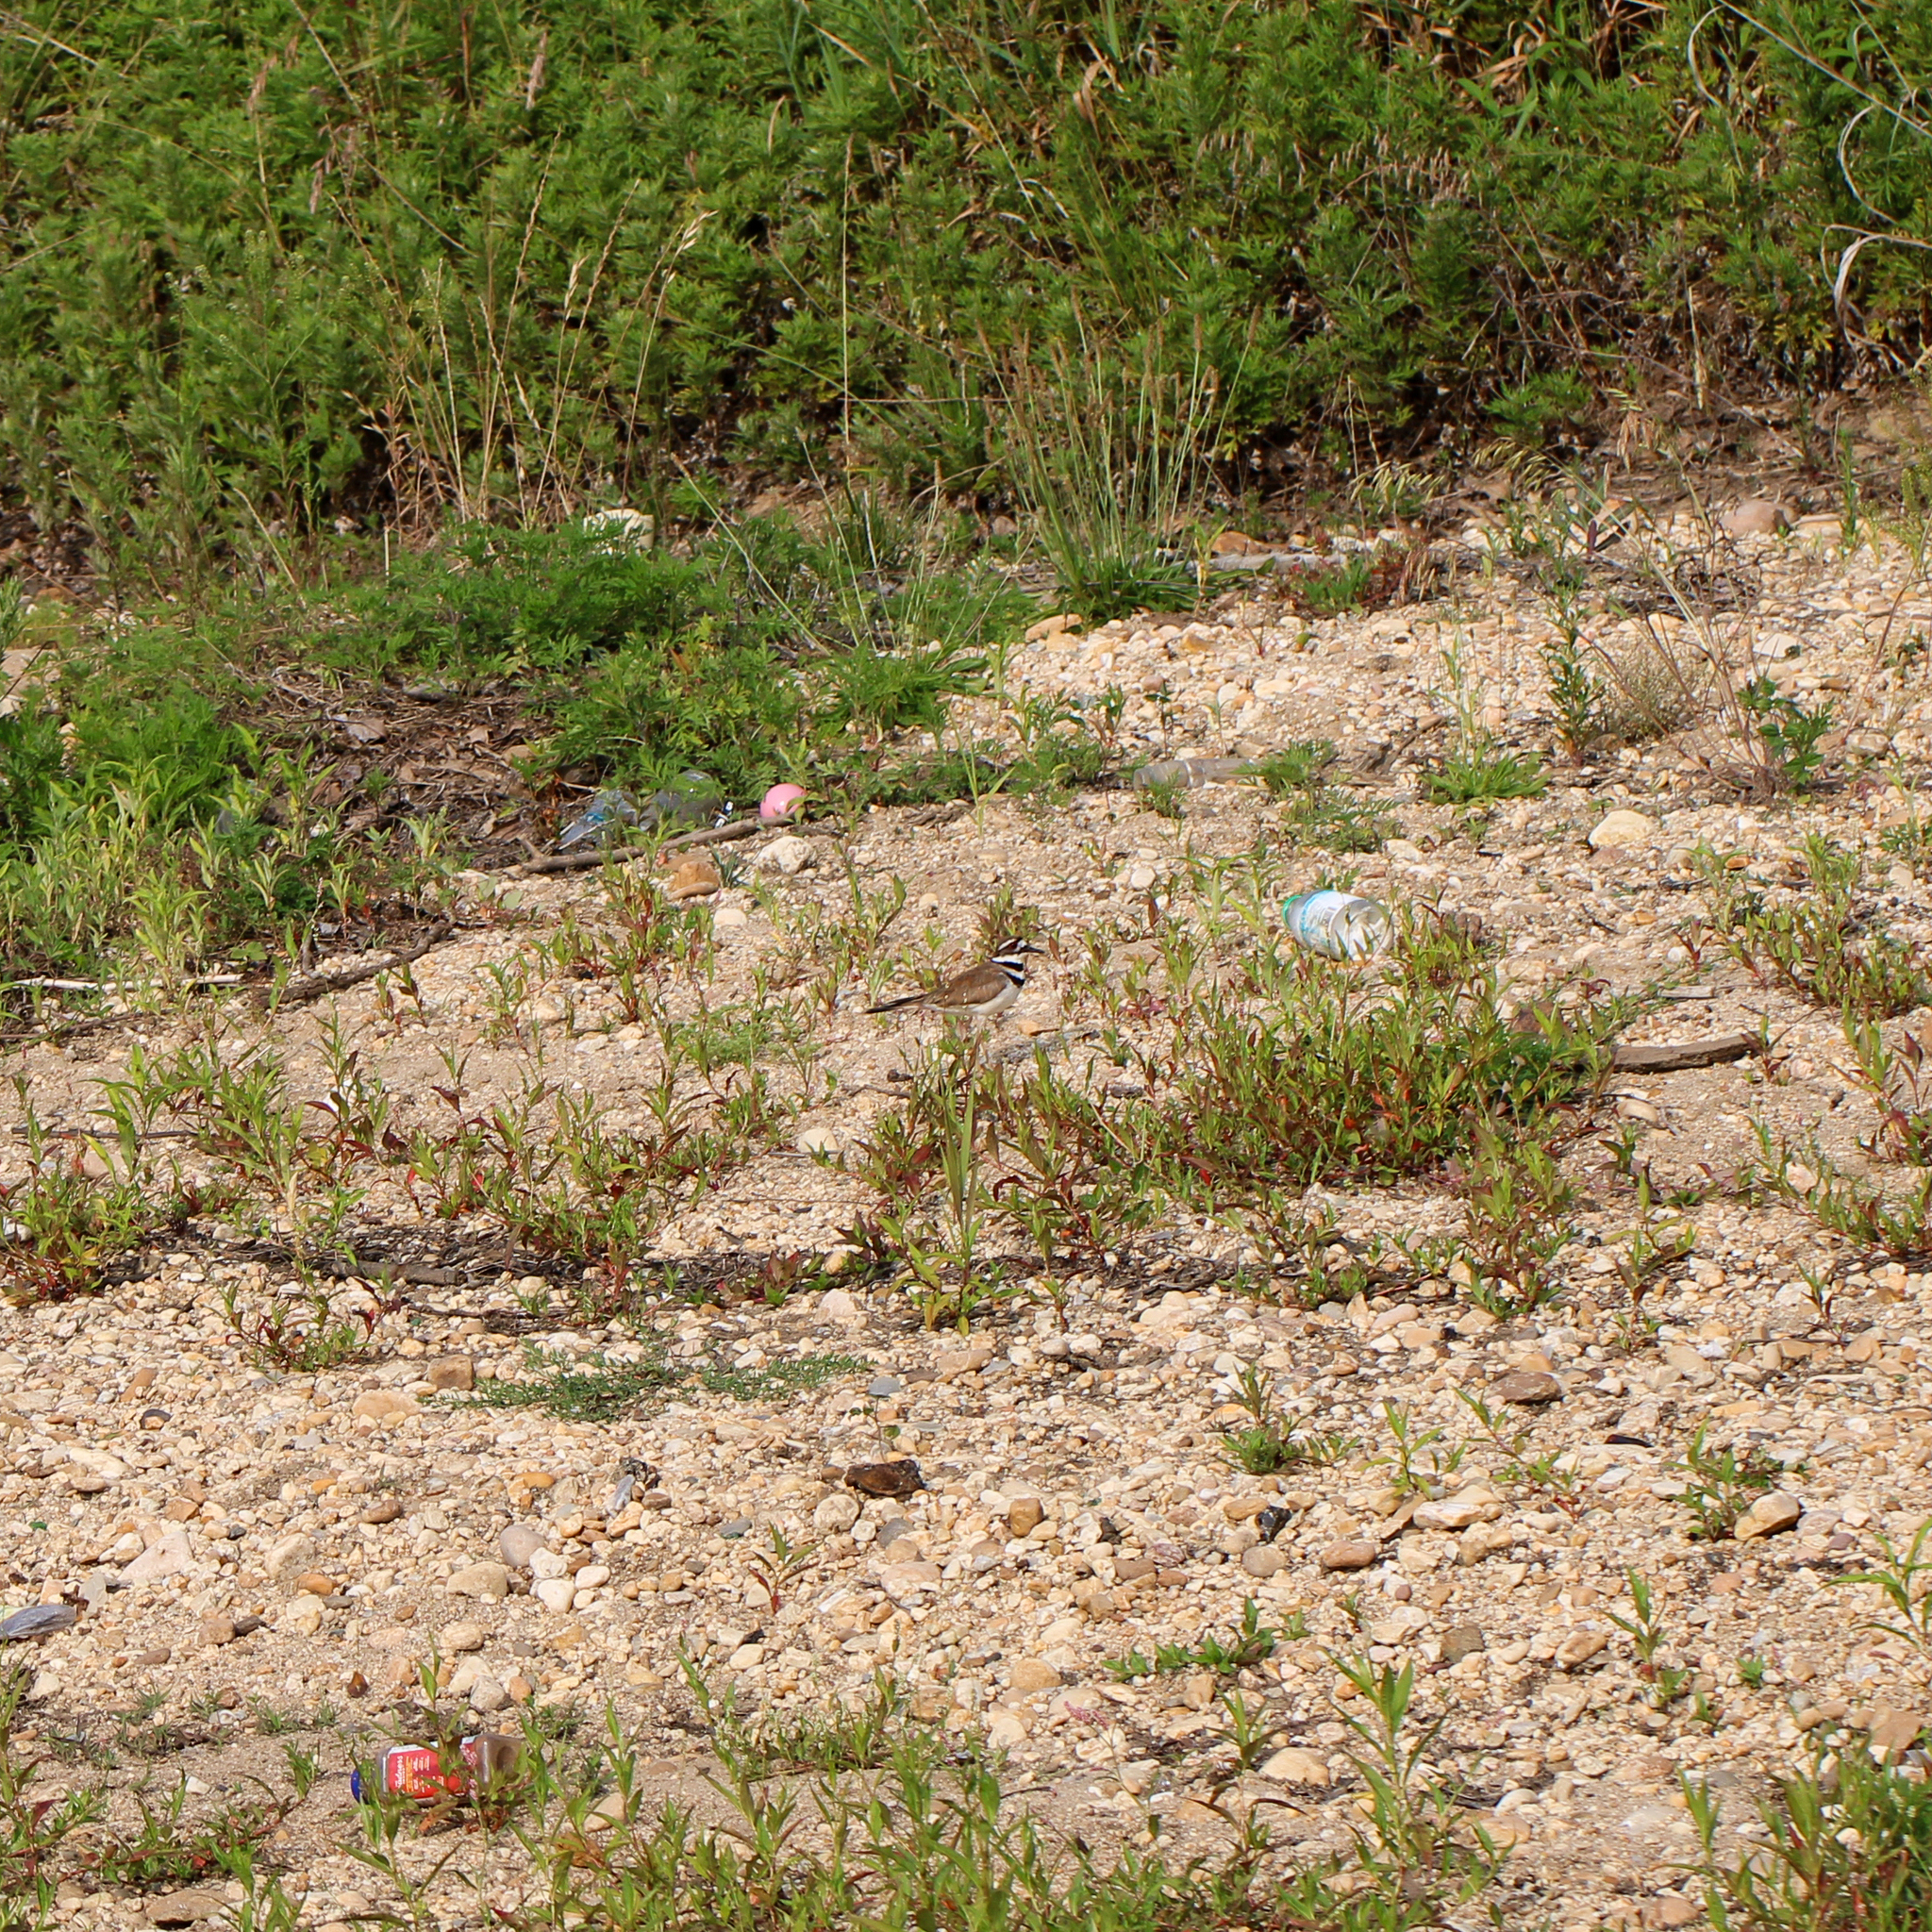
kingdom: Animalia
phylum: Chordata
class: Aves
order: Charadriiformes
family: Charadriidae
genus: Charadrius
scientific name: Charadrius vociferus
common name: Killdeer
